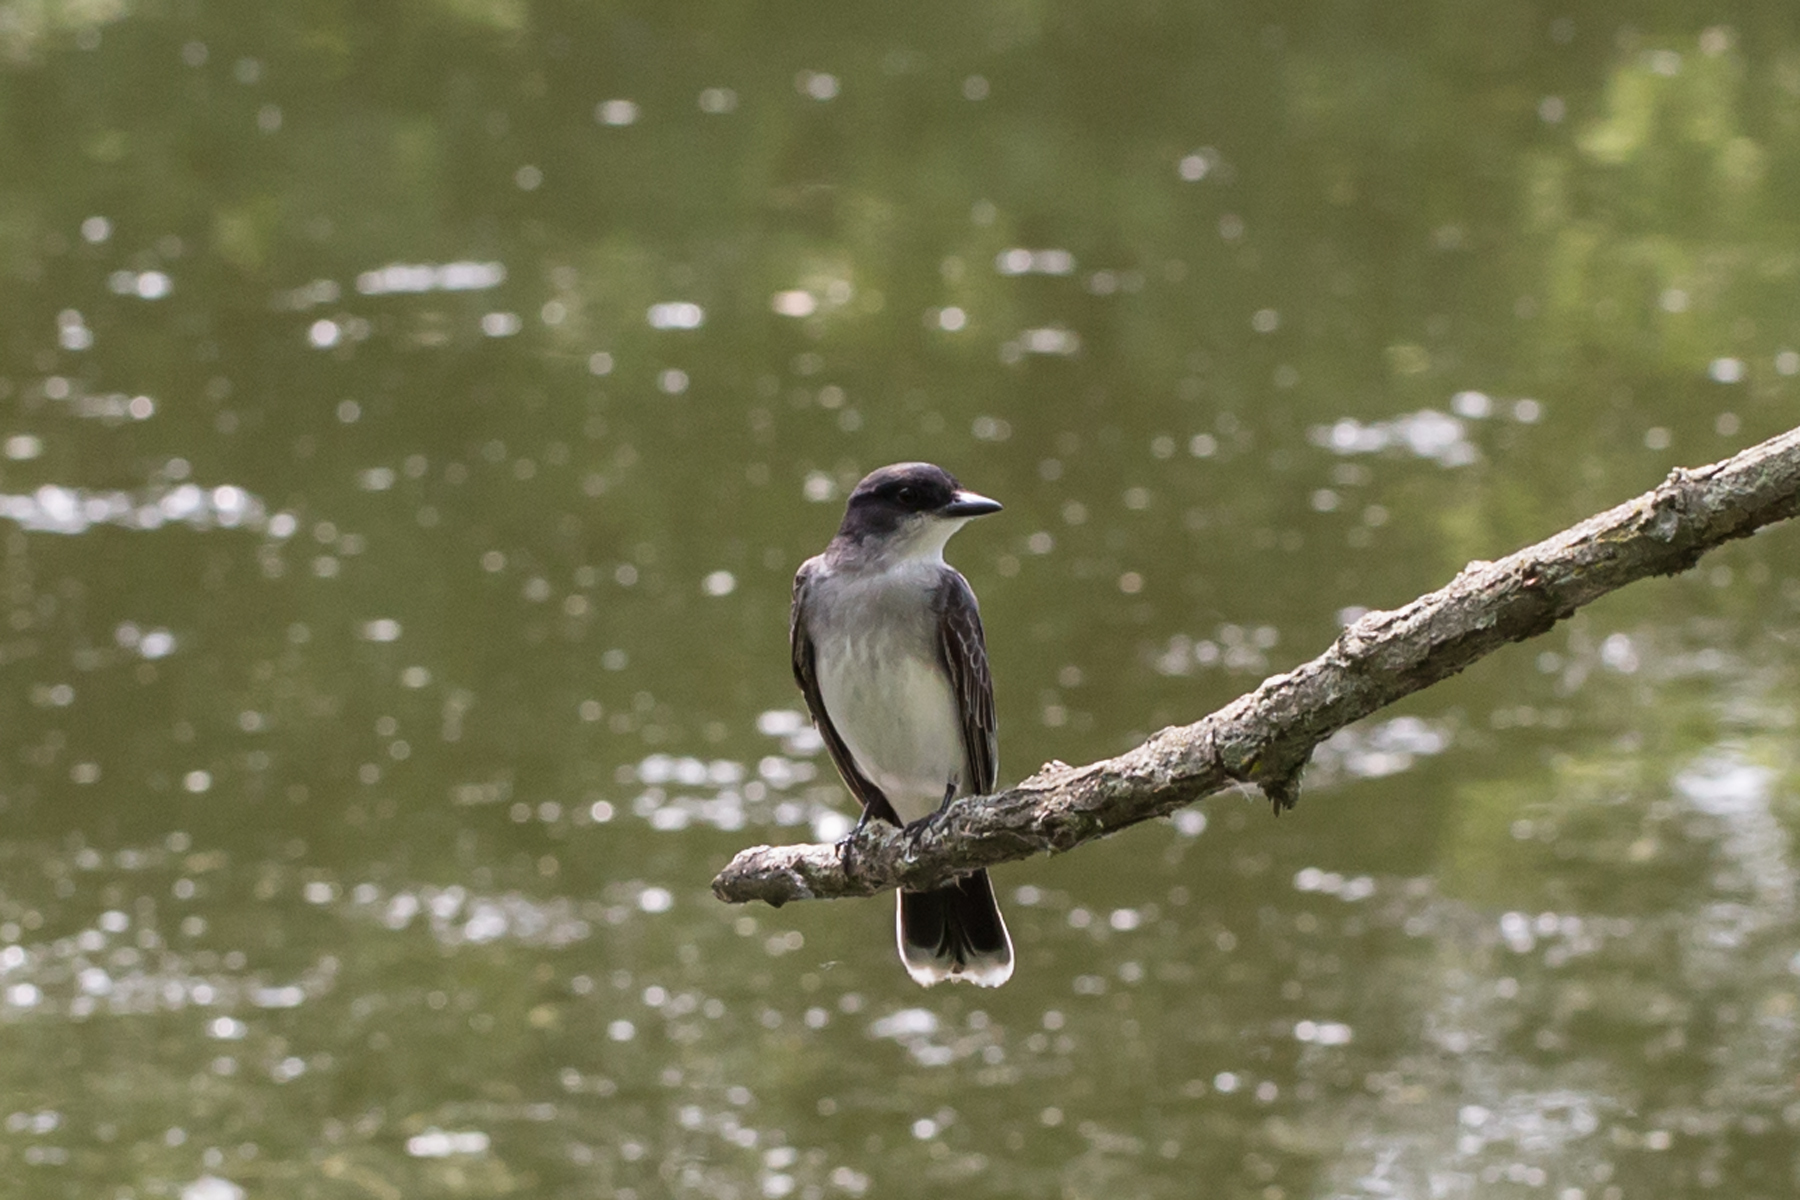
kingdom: Animalia
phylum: Chordata
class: Aves
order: Passeriformes
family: Tyrannidae
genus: Tyrannus
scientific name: Tyrannus tyrannus
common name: Eastern kingbird
